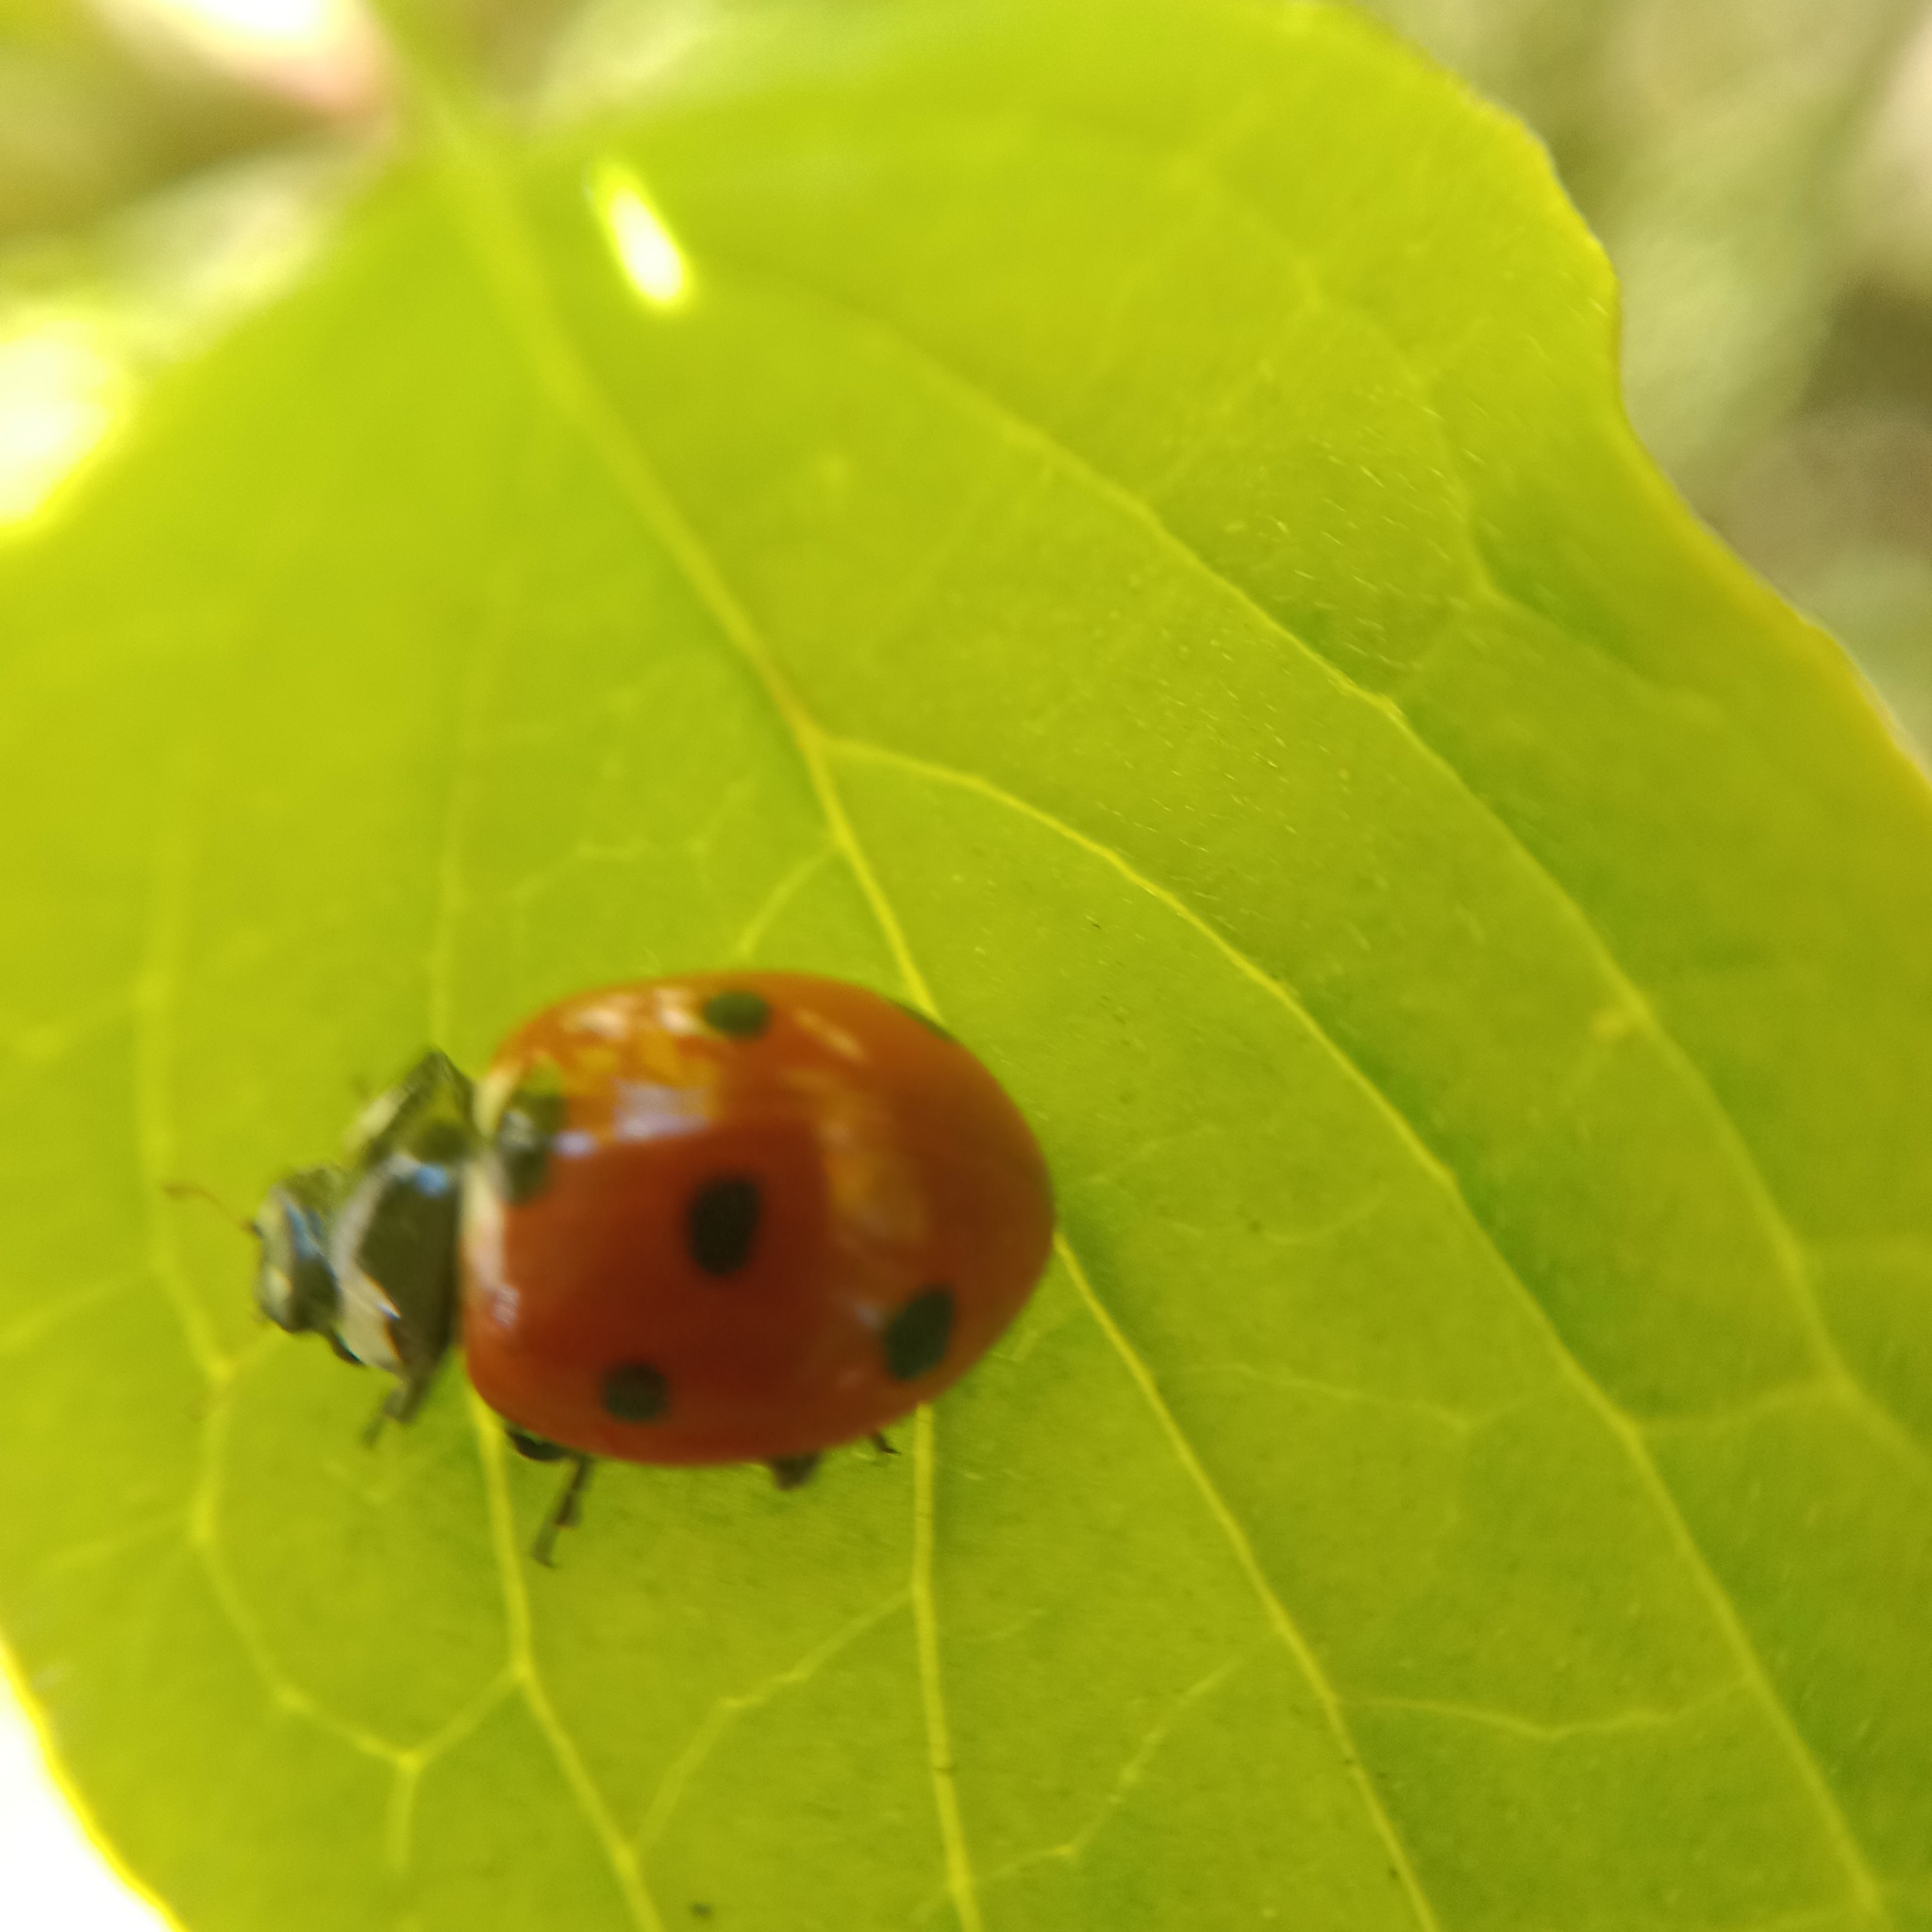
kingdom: Animalia
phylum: Arthropoda
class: Insecta
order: Coleoptera
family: Coccinellidae
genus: Coccinella
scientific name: Coccinella septempunctata
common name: Sevenspotted lady beetle
